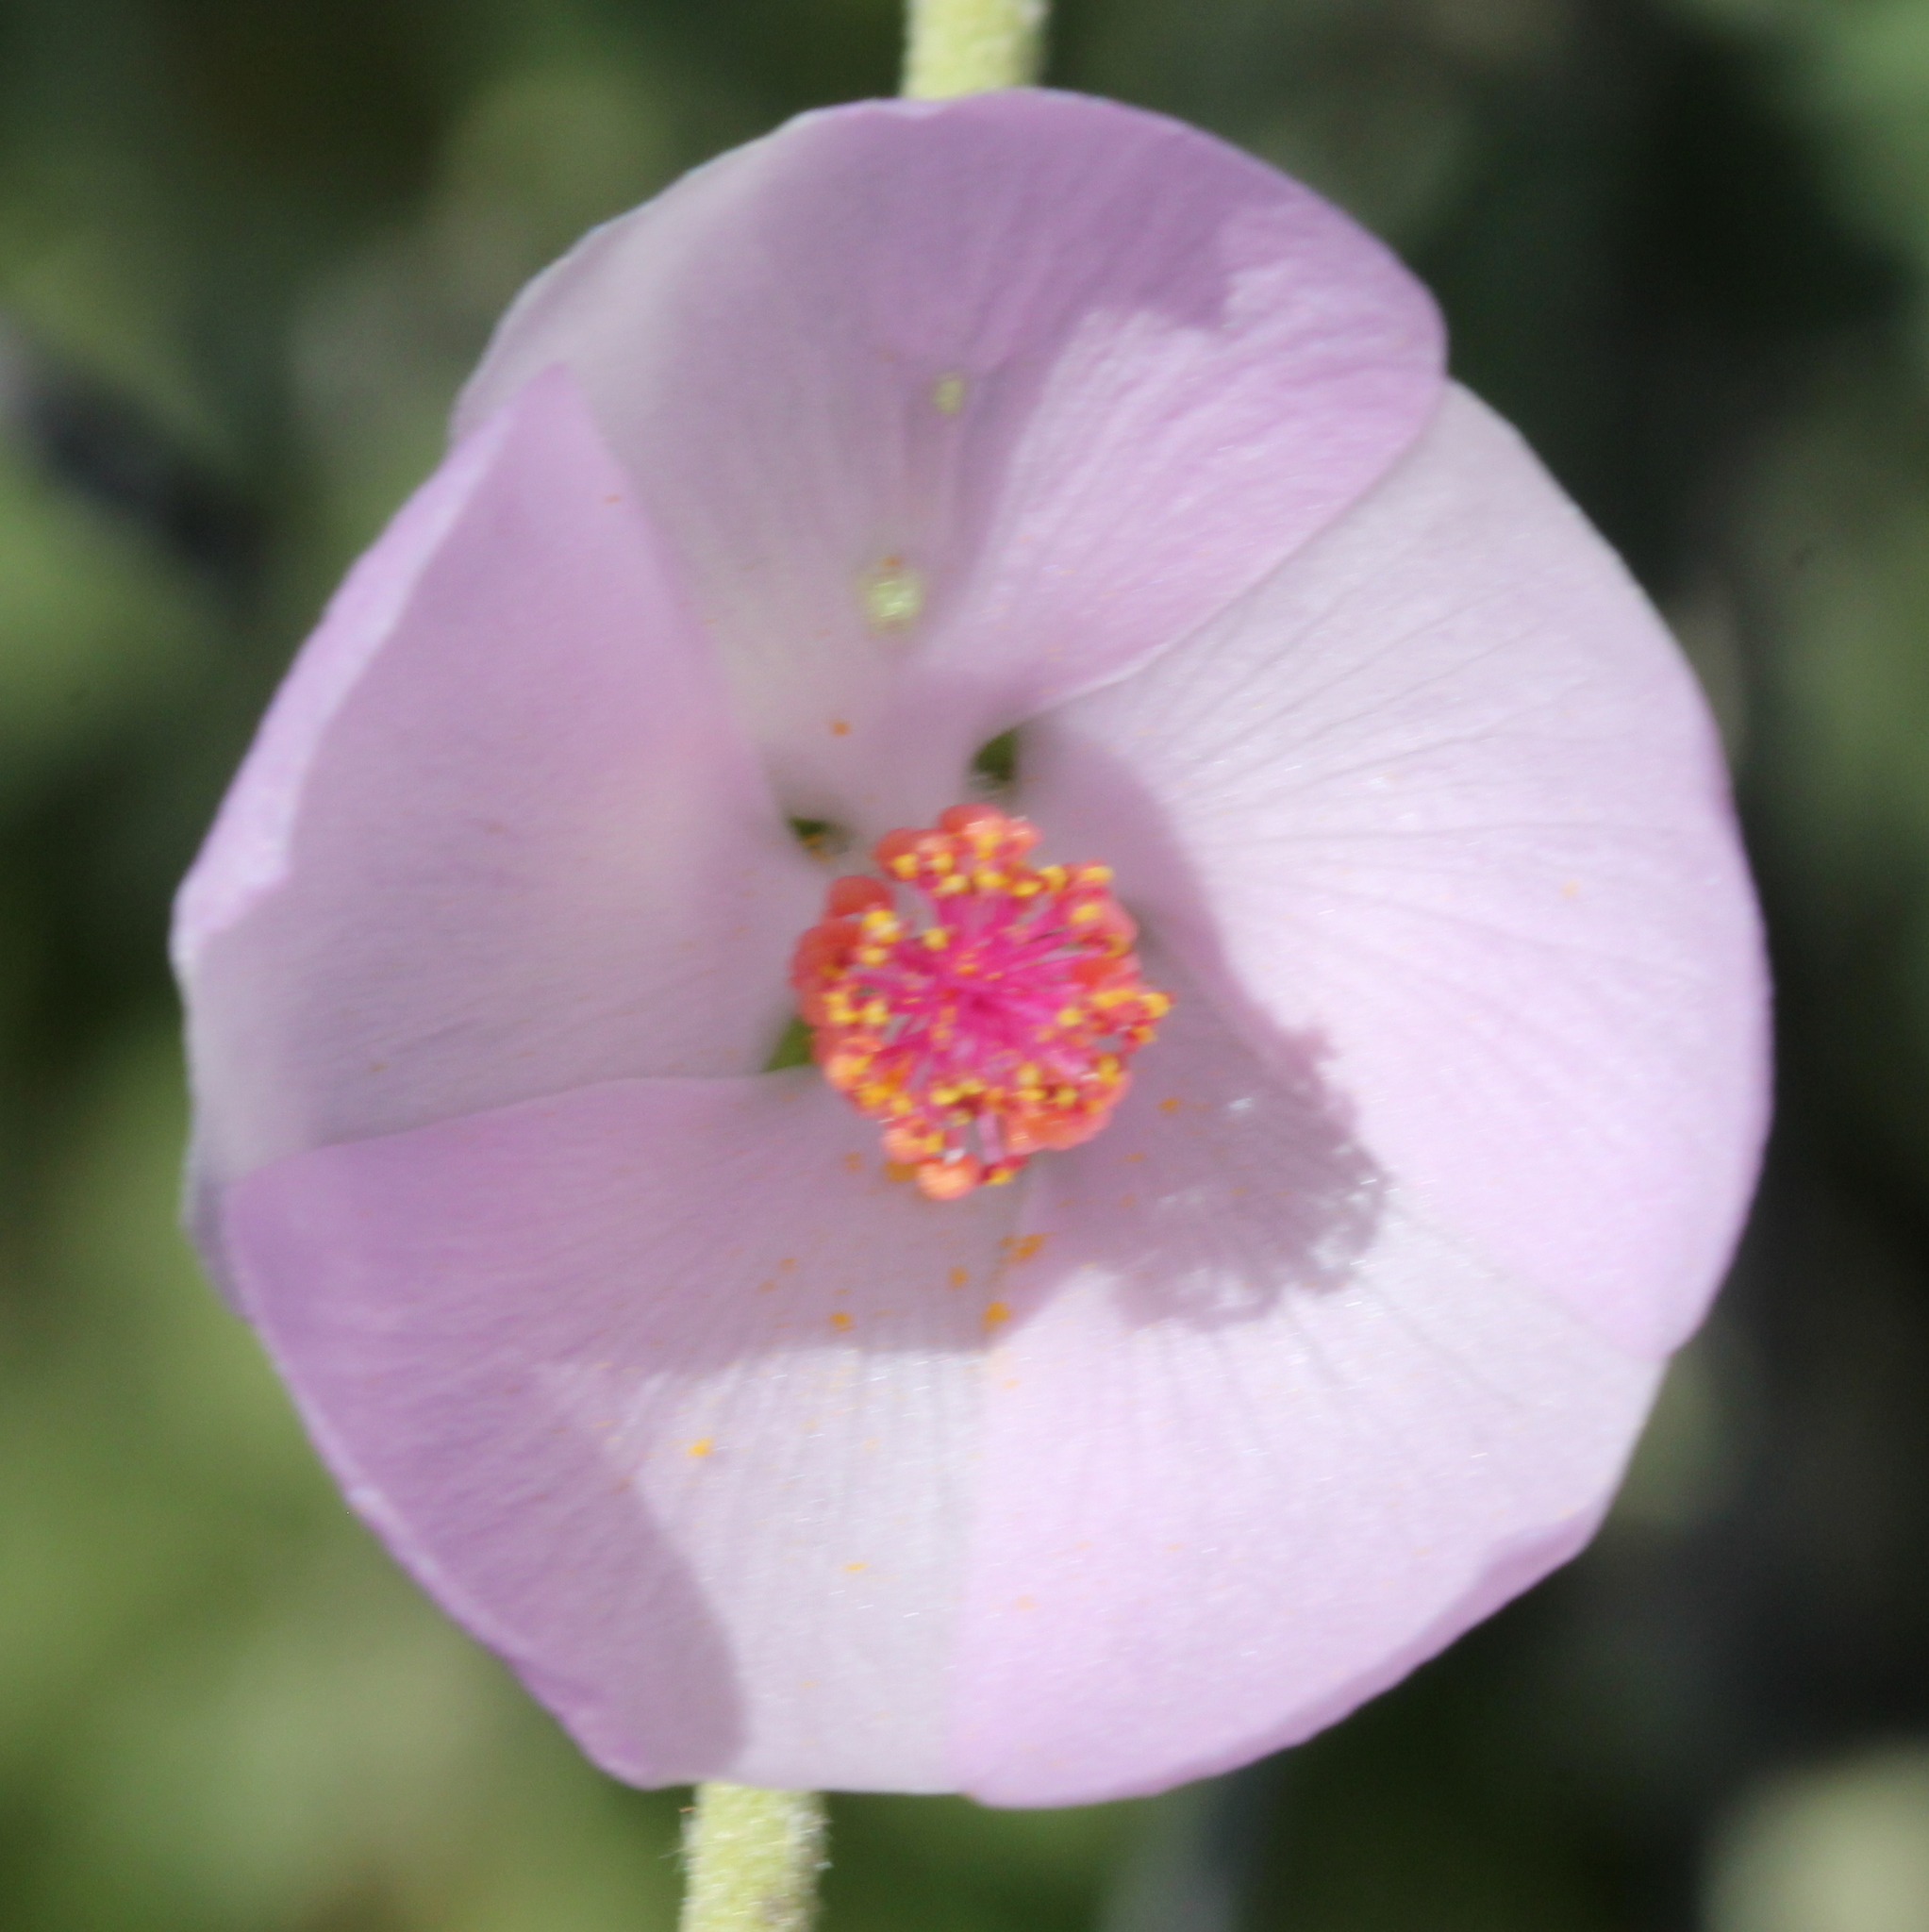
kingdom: Plantae
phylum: Tracheophyta
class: Magnoliopsida
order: Malvales
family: Malvaceae
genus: Malacothamnus
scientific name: Malacothamnus fasciculatus
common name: Sant cruz island bush-mallow
